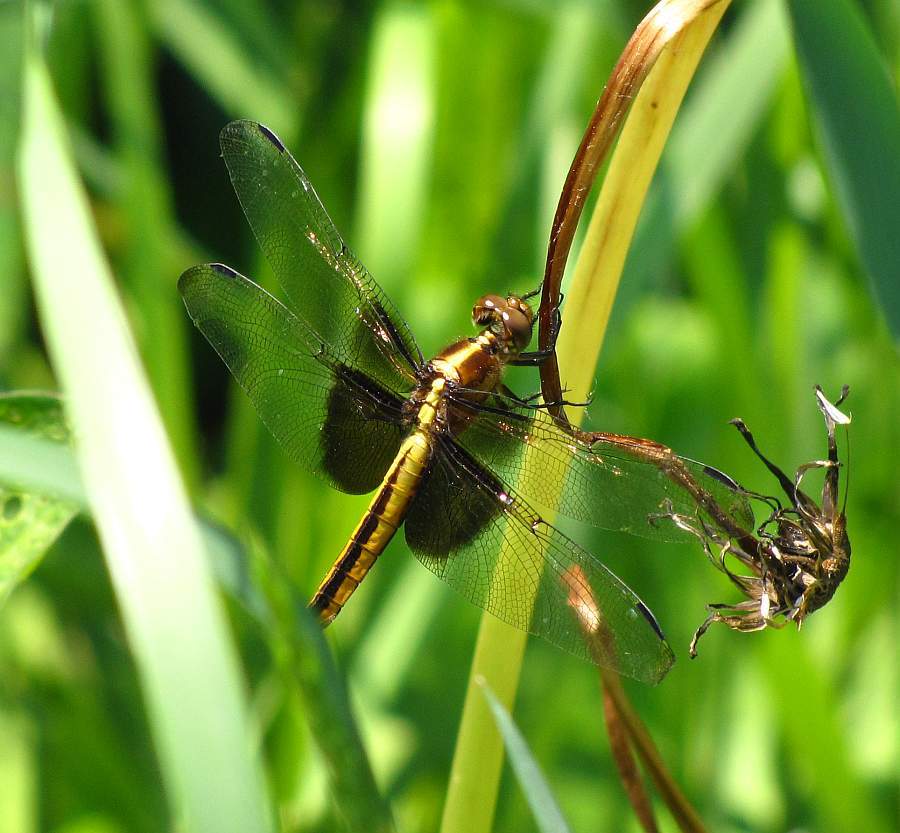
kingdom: Animalia
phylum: Arthropoda
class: Insecta
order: Odonata
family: Libellulidae
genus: Libellula
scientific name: Libellula luctuosa
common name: Widow skimmer
